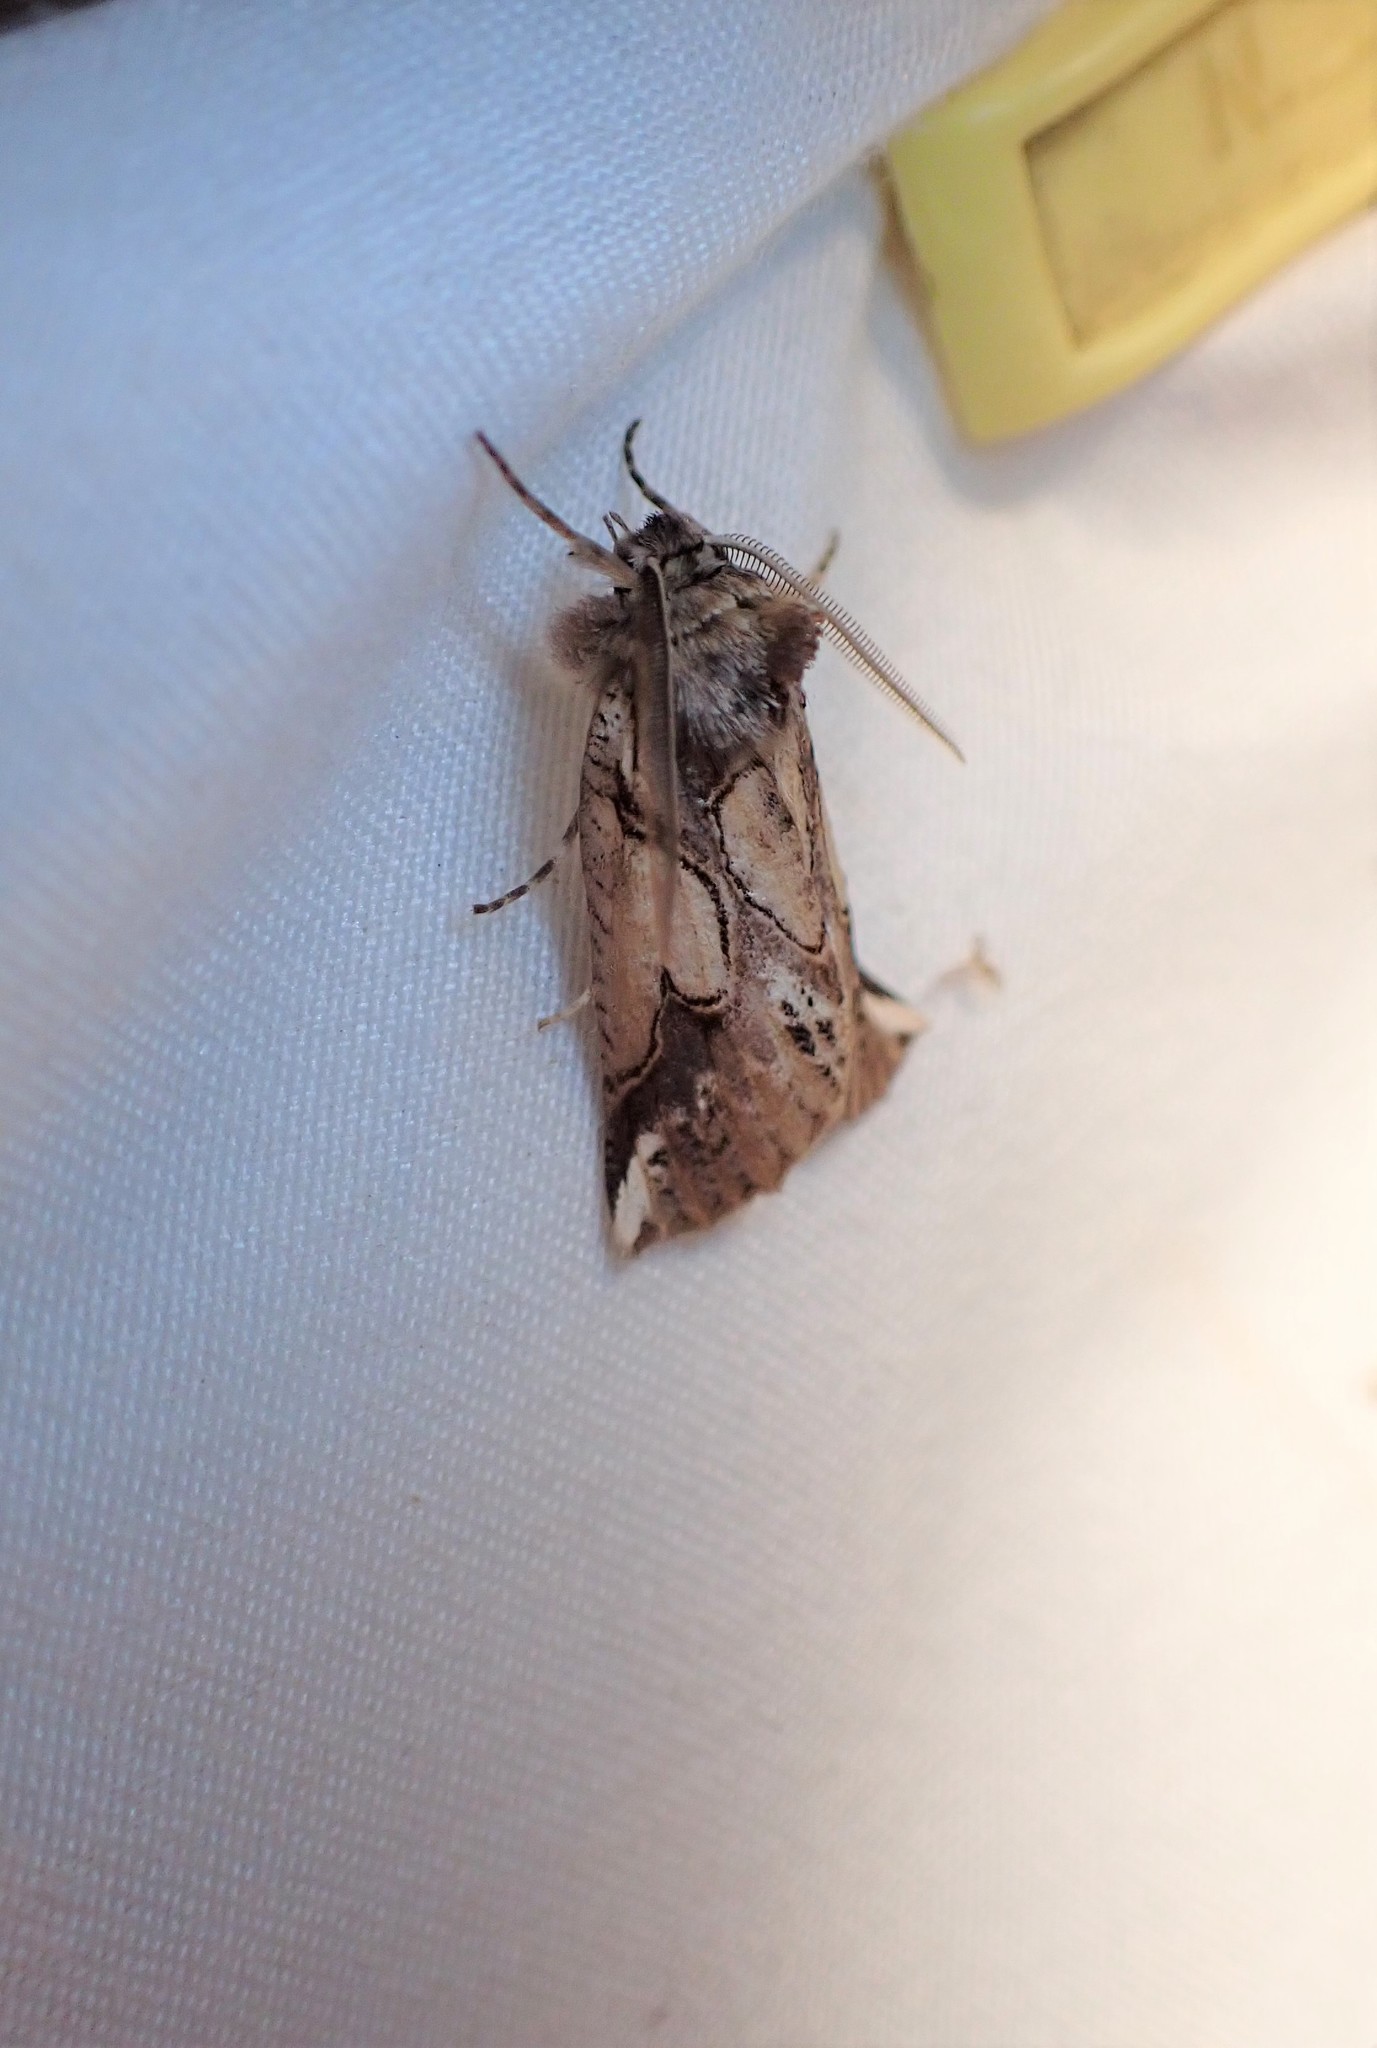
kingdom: Animalia
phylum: Arthropoda
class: Insecta
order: Lepidoptera
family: Geometridae
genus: Declana
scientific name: Declana
